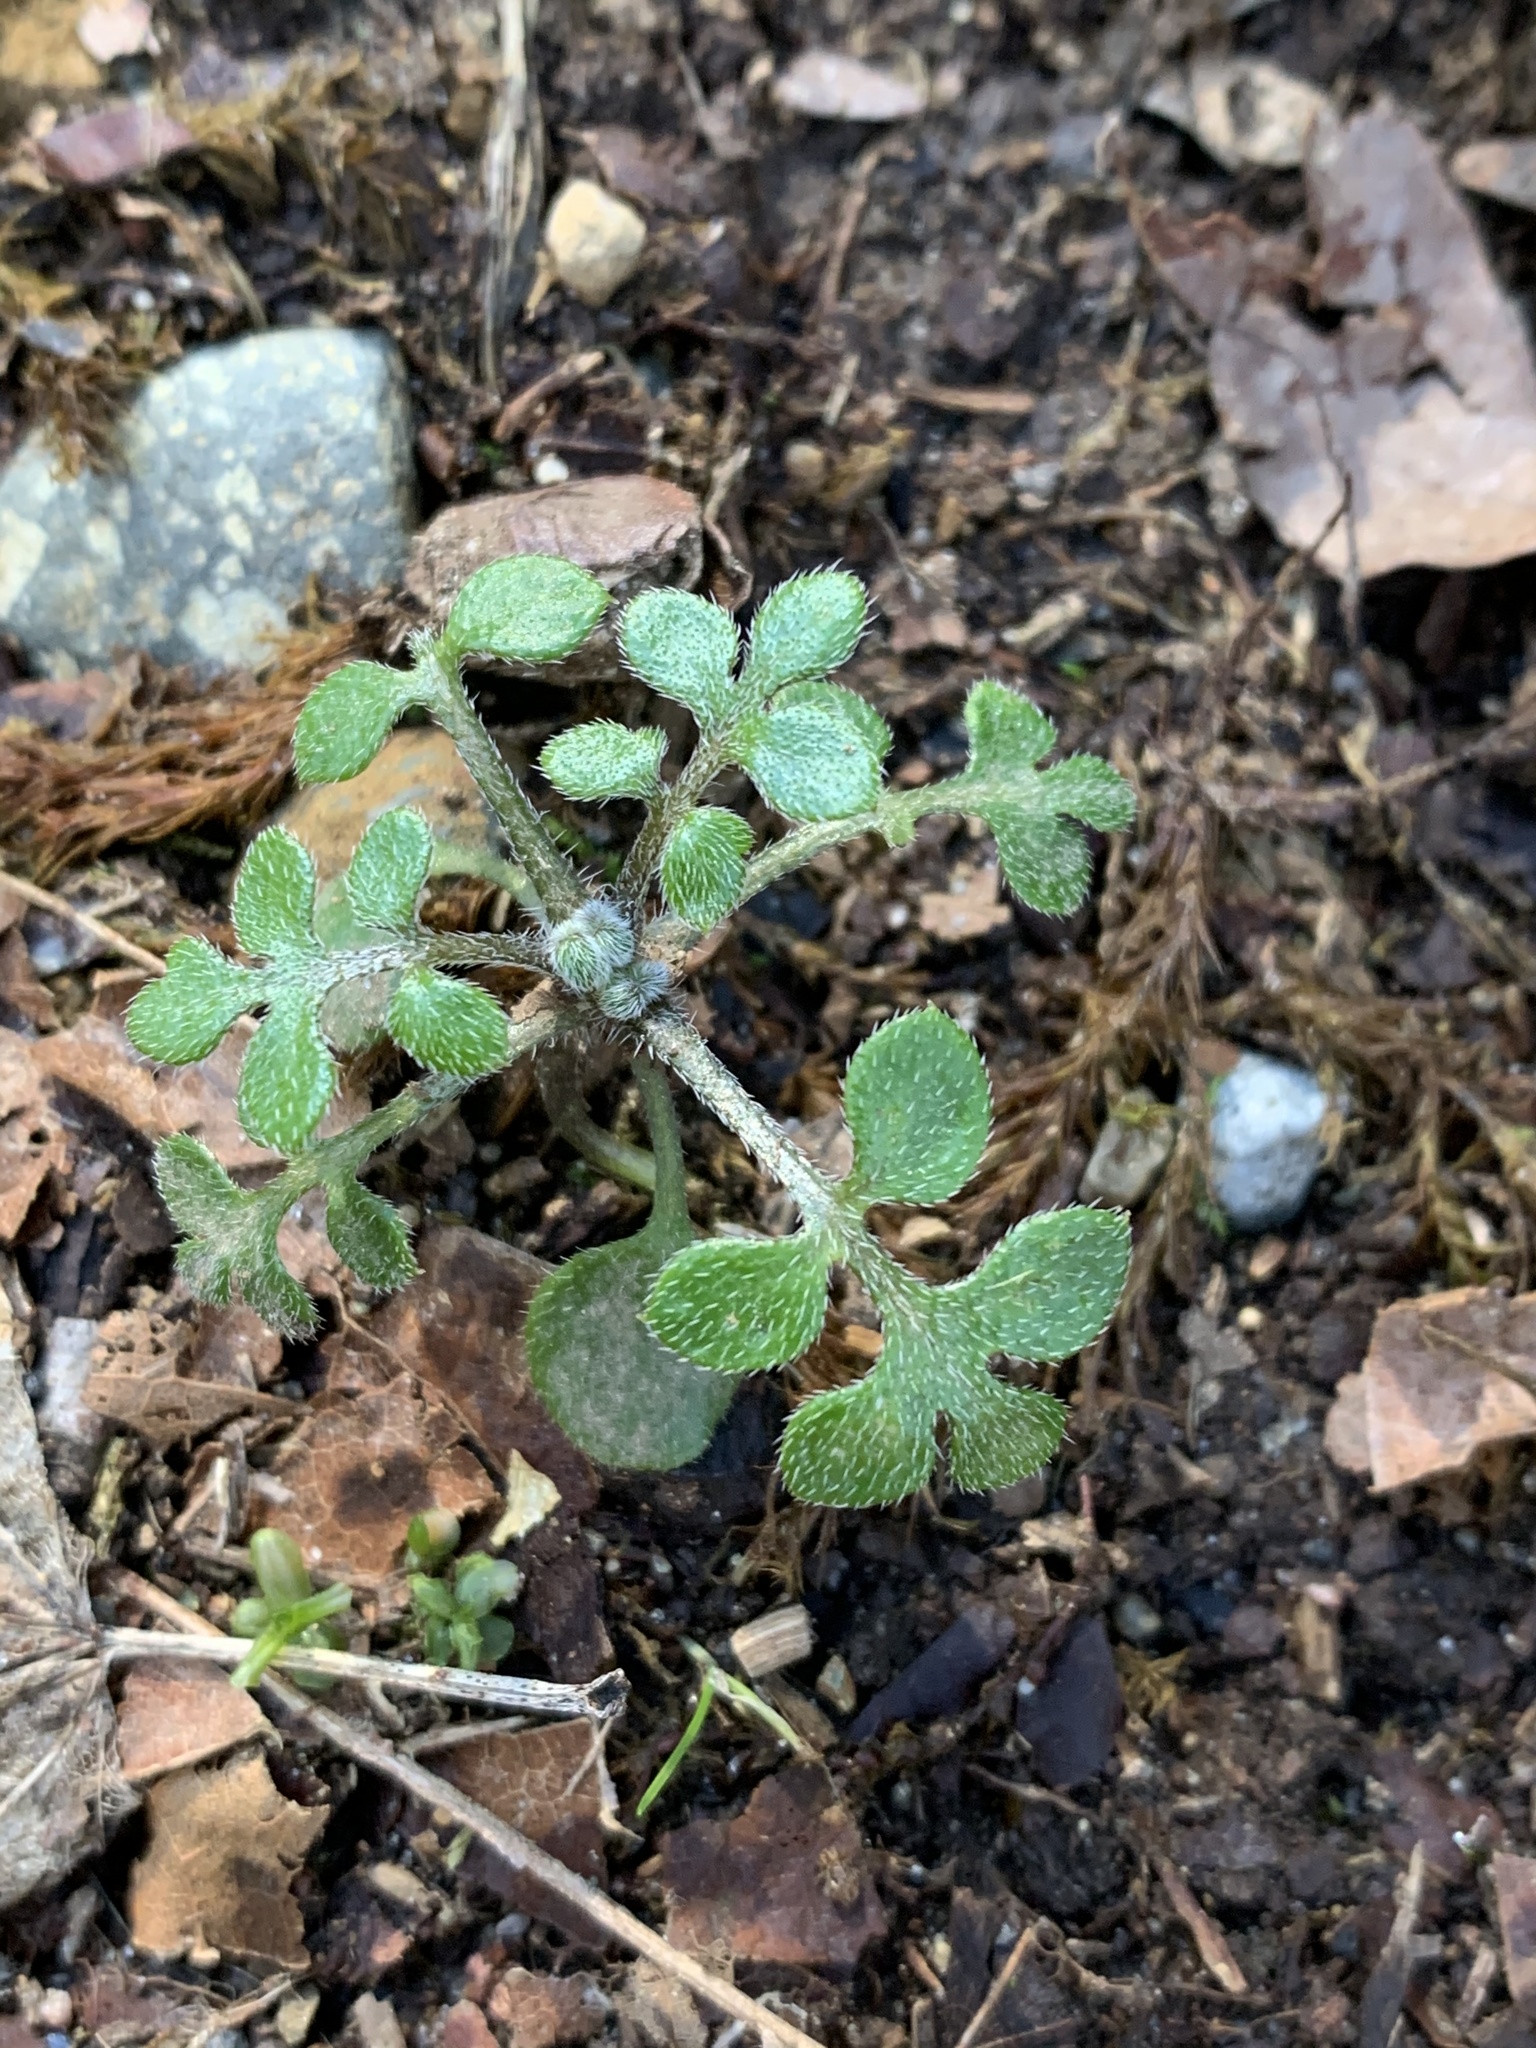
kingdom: Plantae
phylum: Tracheophyta
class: Magnoliopsida
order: Boraginales
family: Hydrophyllaceae
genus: Nemophila
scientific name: Nemophila parviflora
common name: Small-flowered baby-blue-eyes
